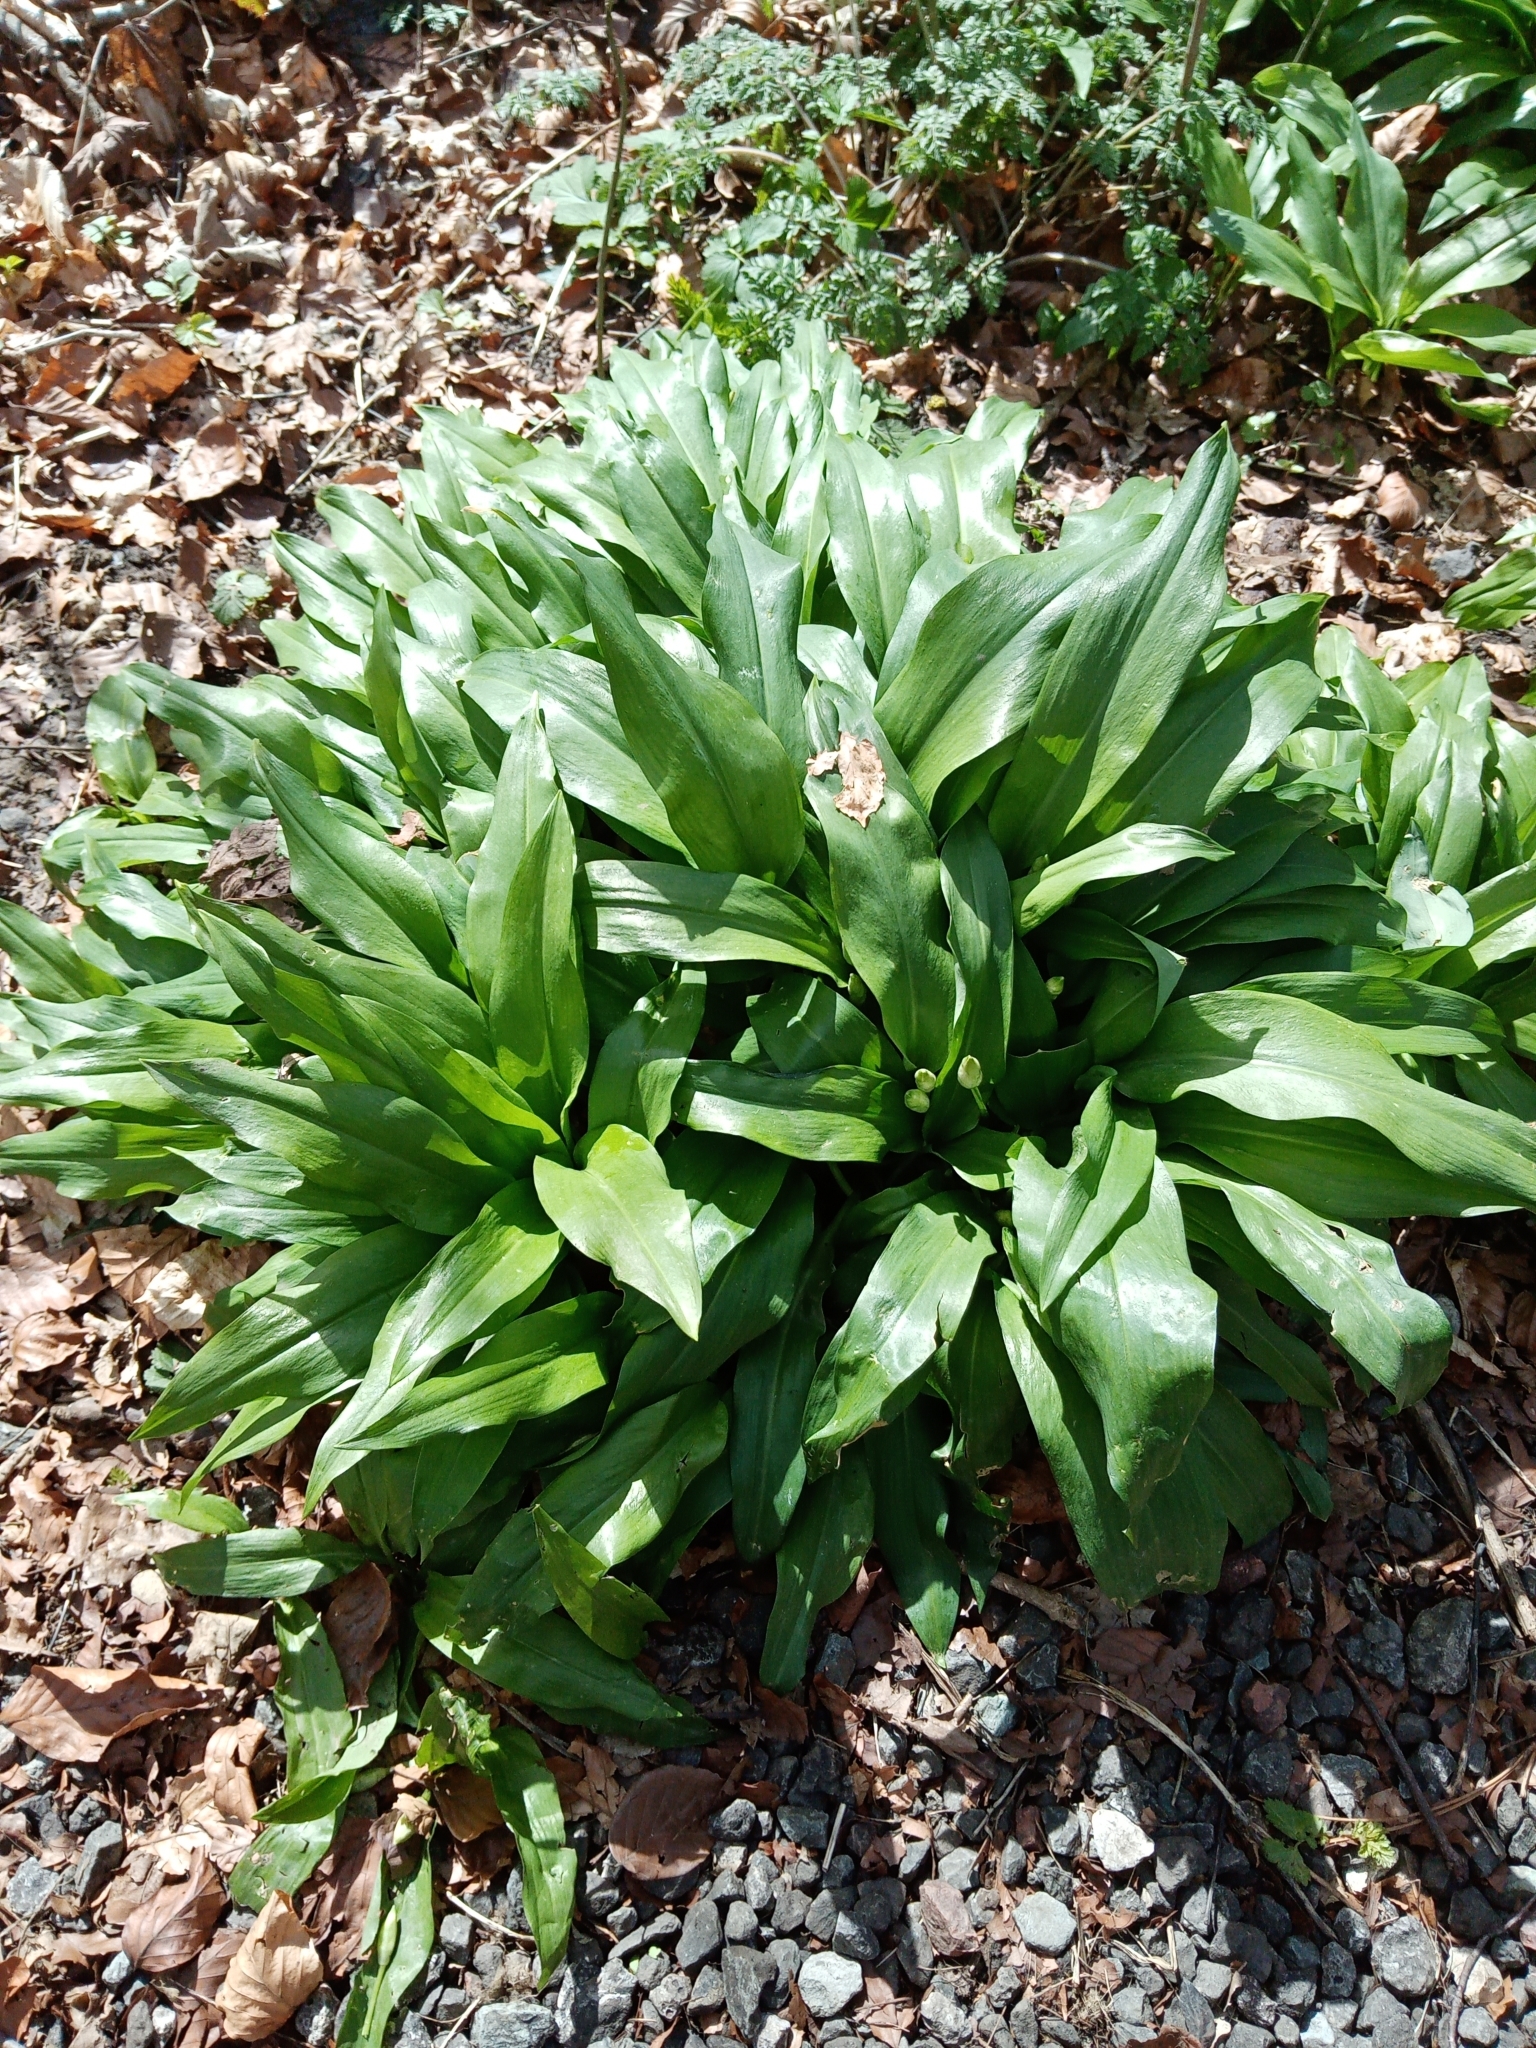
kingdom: Plantae
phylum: Tracheophyta
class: Liliopsida
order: Asparagales
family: Amaryllidaceae
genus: Allium
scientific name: Allium ursinum
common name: Ramsons
